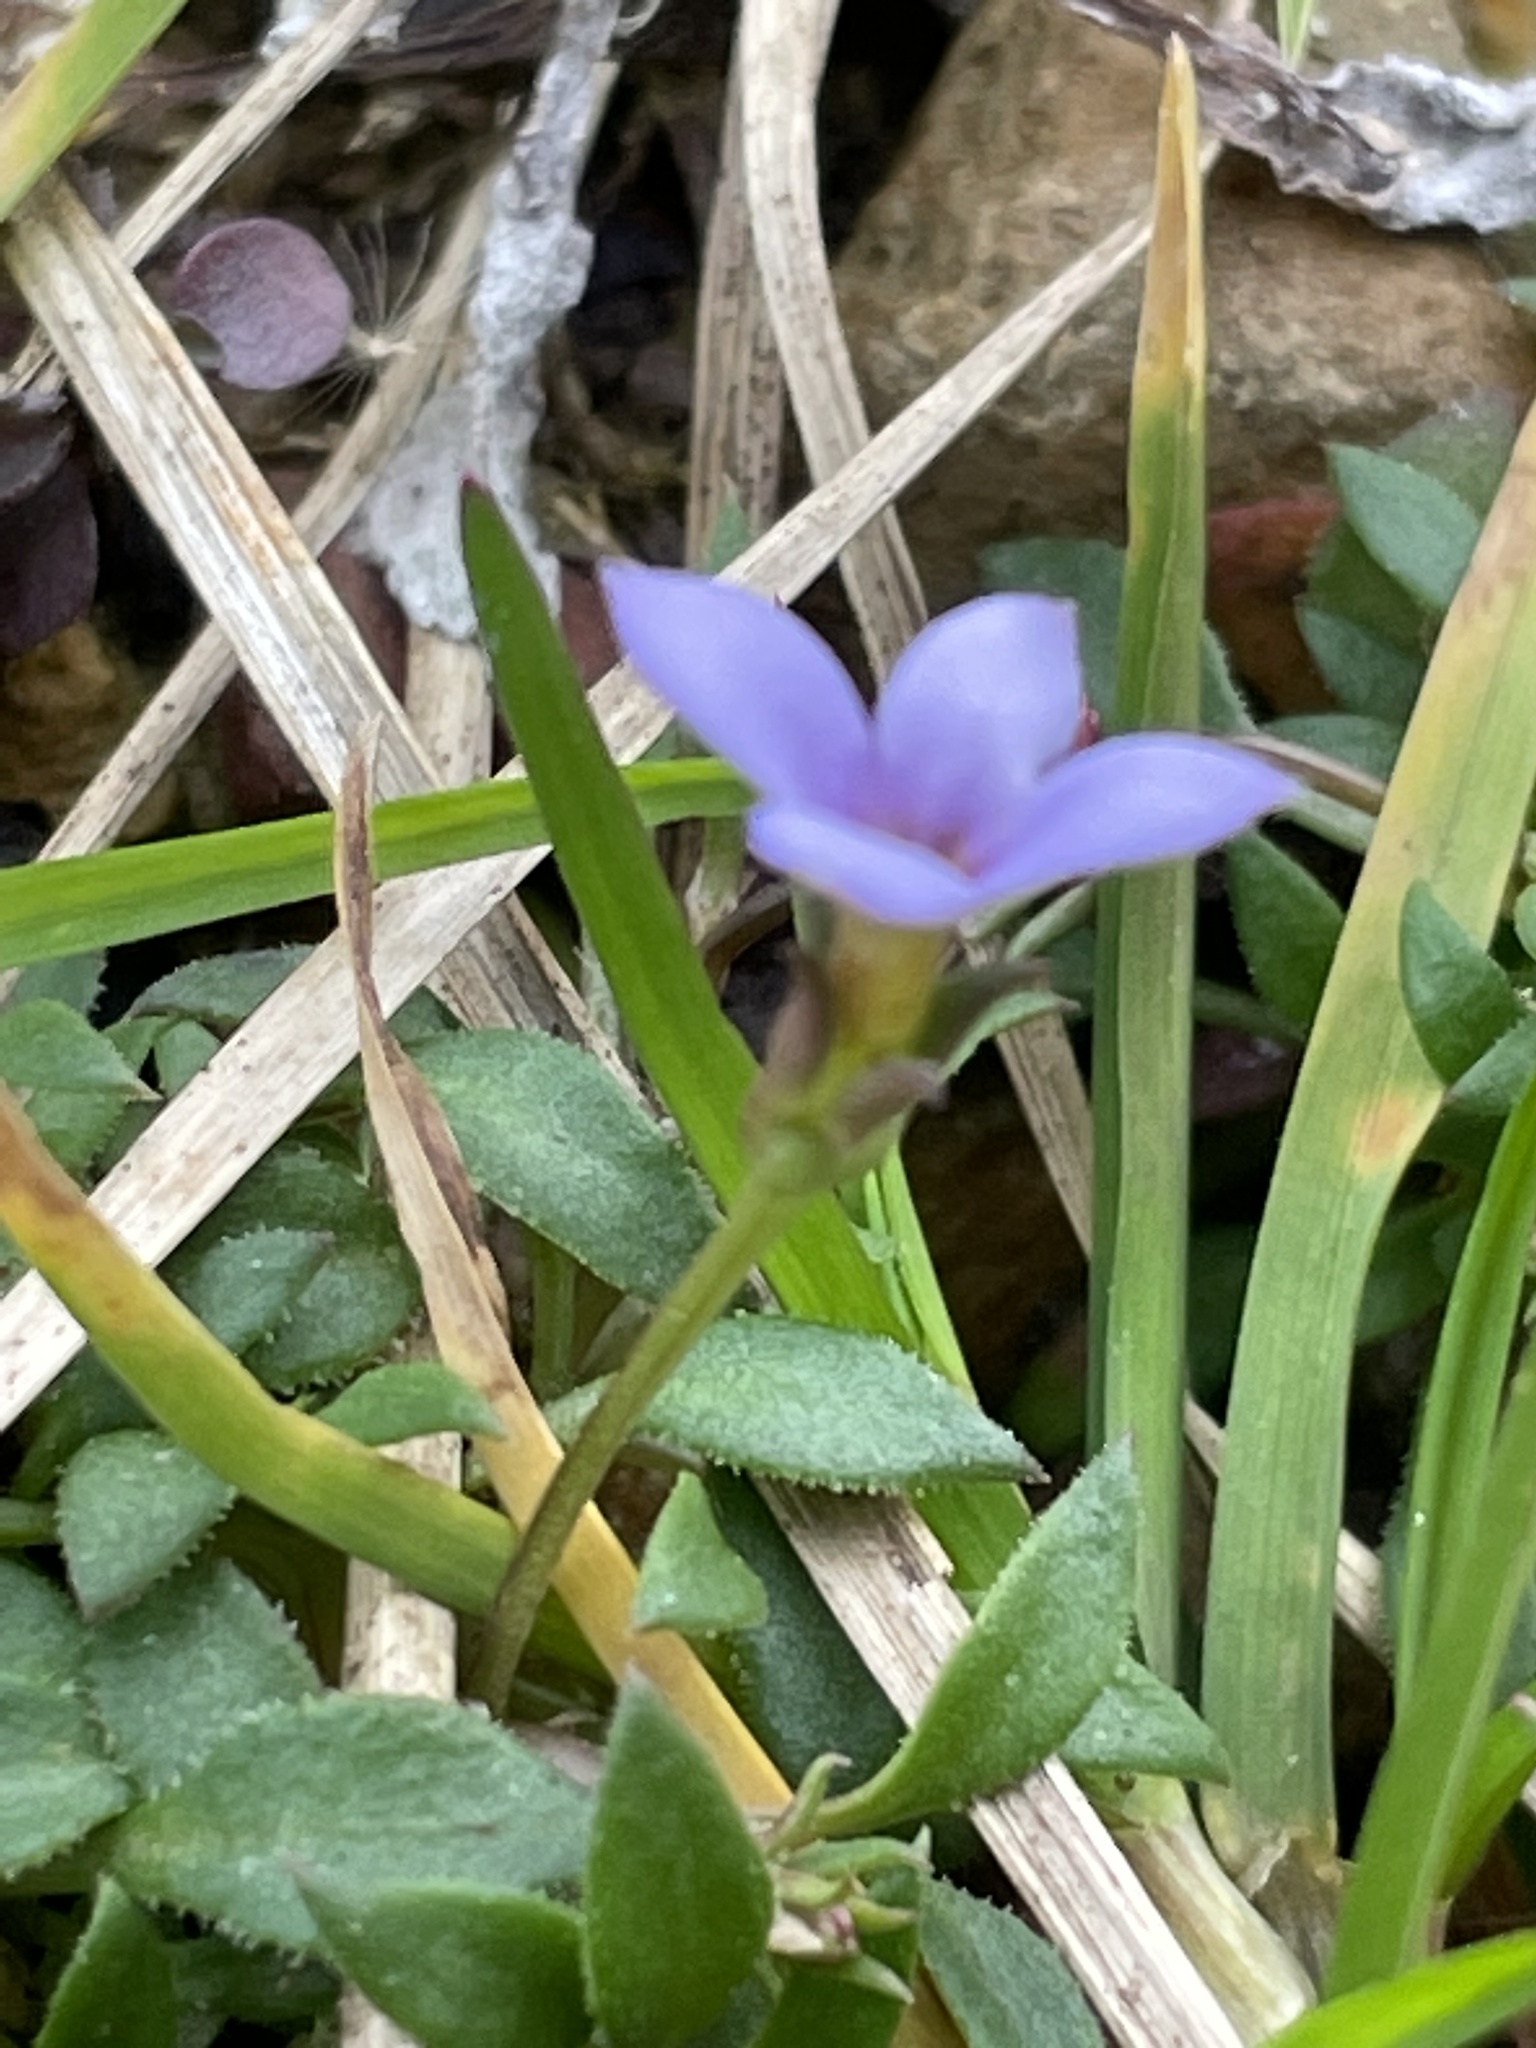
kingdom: Plantae
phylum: Tracheophyta
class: Magnoliopsida
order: Gentianales
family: Rubiaceae
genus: Houstonia
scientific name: Houstonia pusilla
